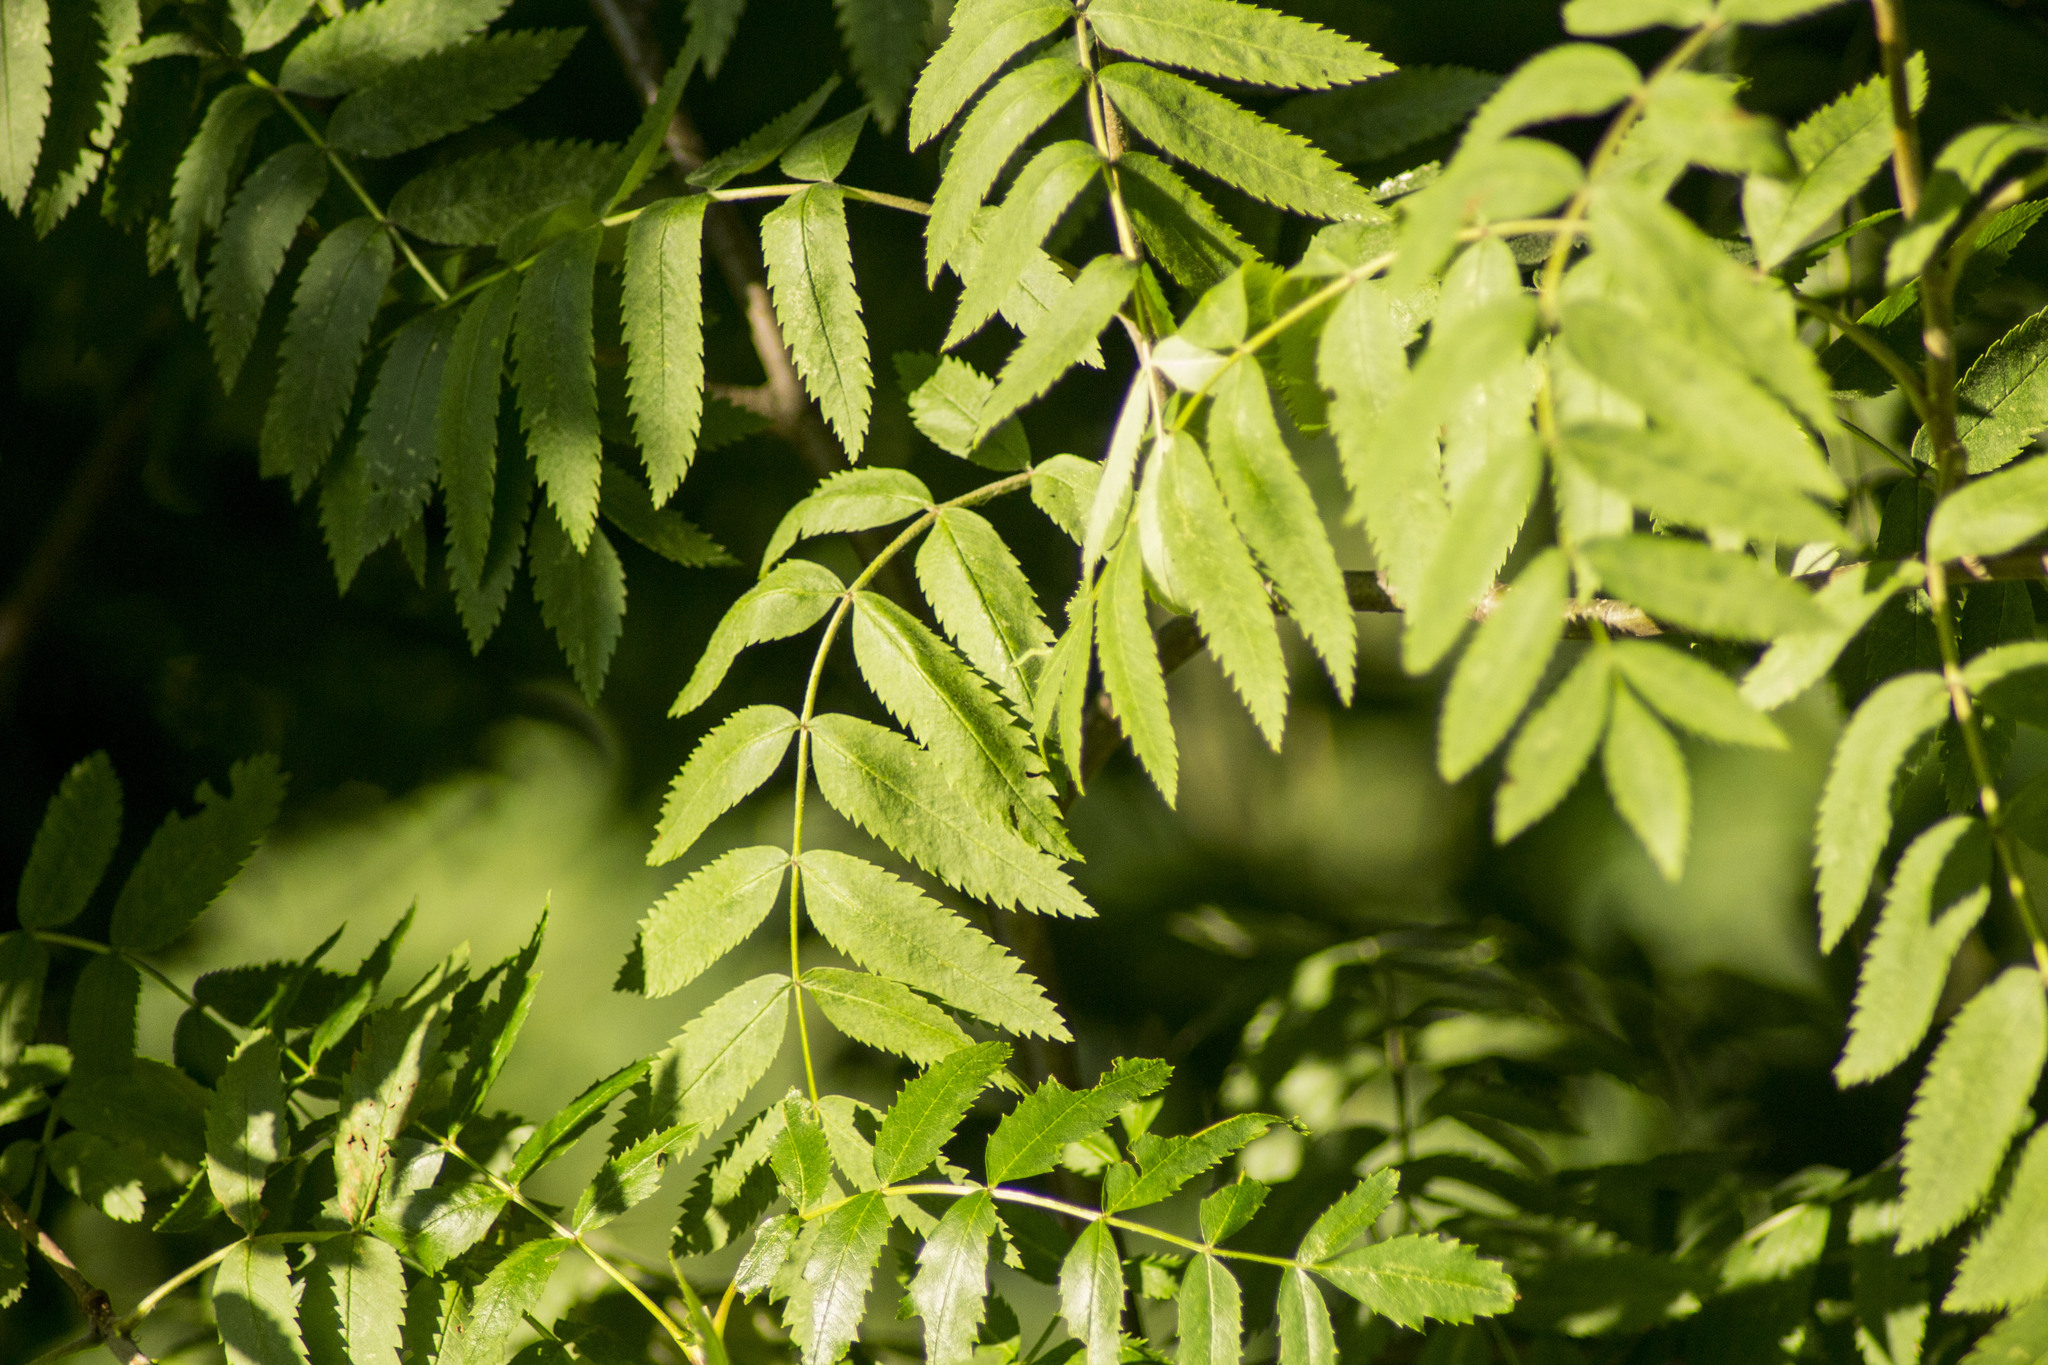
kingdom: Plantae
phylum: Tracheophyta
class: Magnoliopsida
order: Rosales
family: Rosaceae
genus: Sorbus
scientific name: Sorbus aucuparia
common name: Rowan
